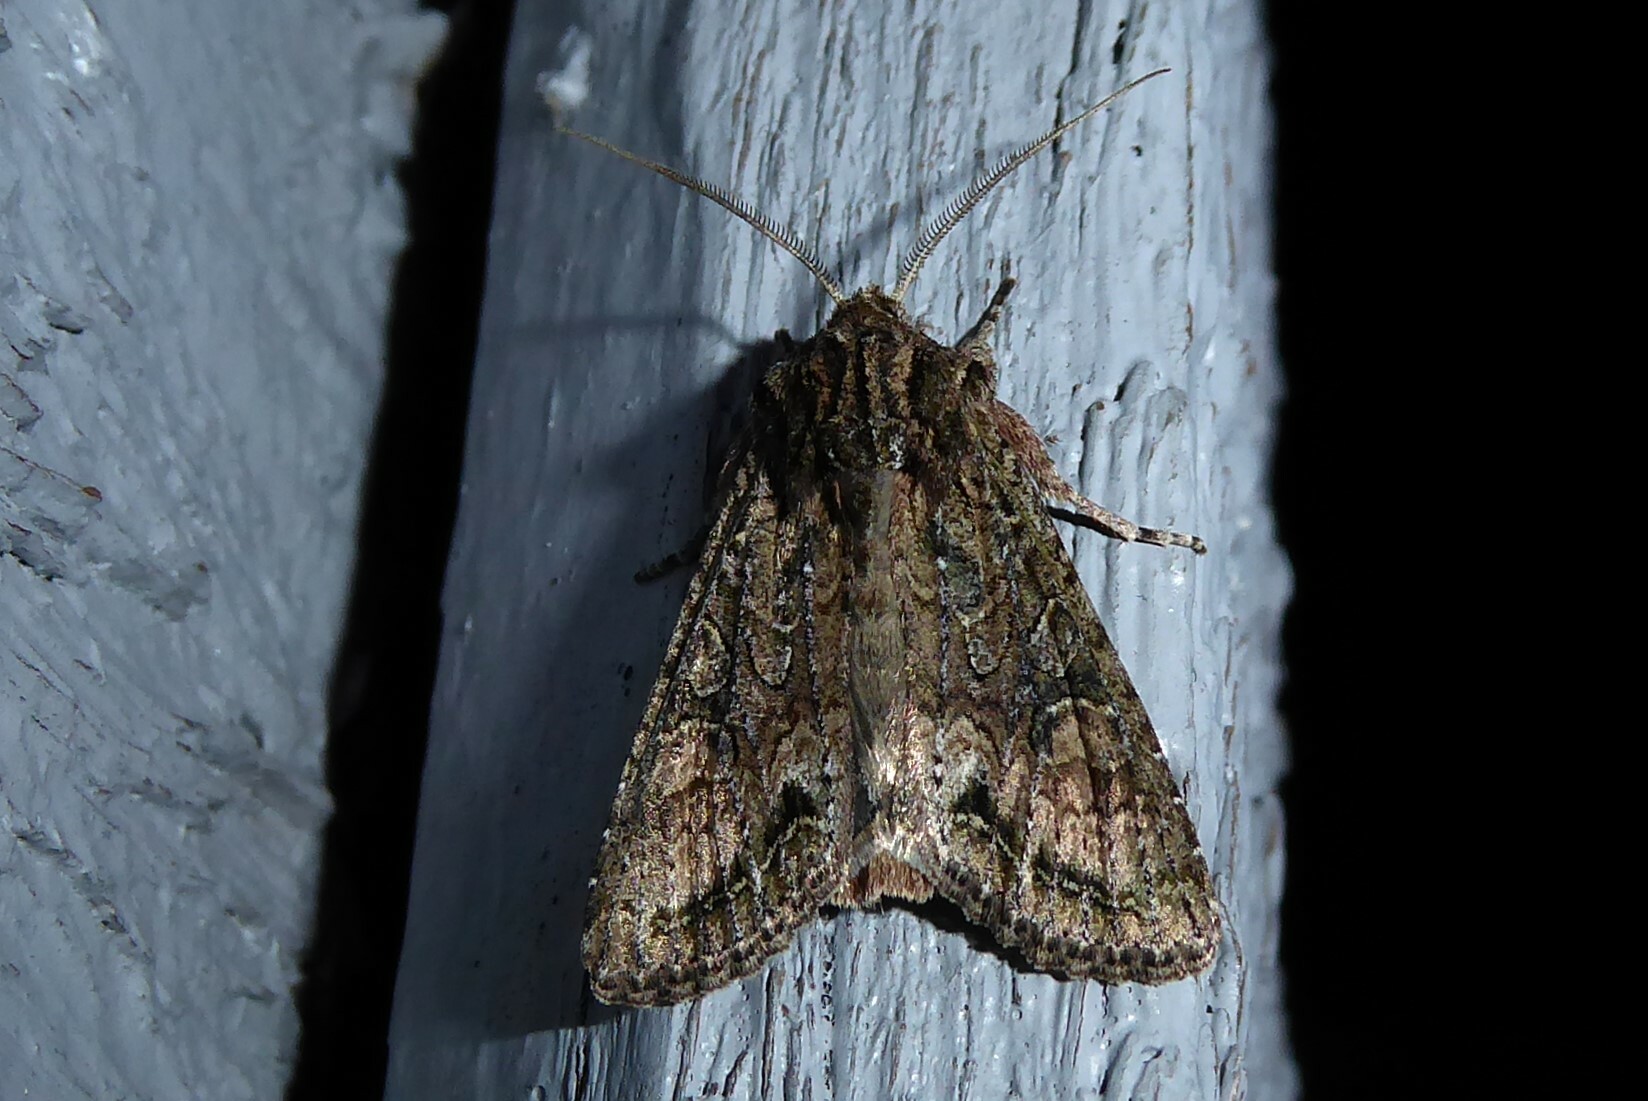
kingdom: Animalia
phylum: Arthropoda
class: Insecta
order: Lepidoptera
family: Noctuidae
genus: Ichneutica
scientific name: Ichneutica mutans
